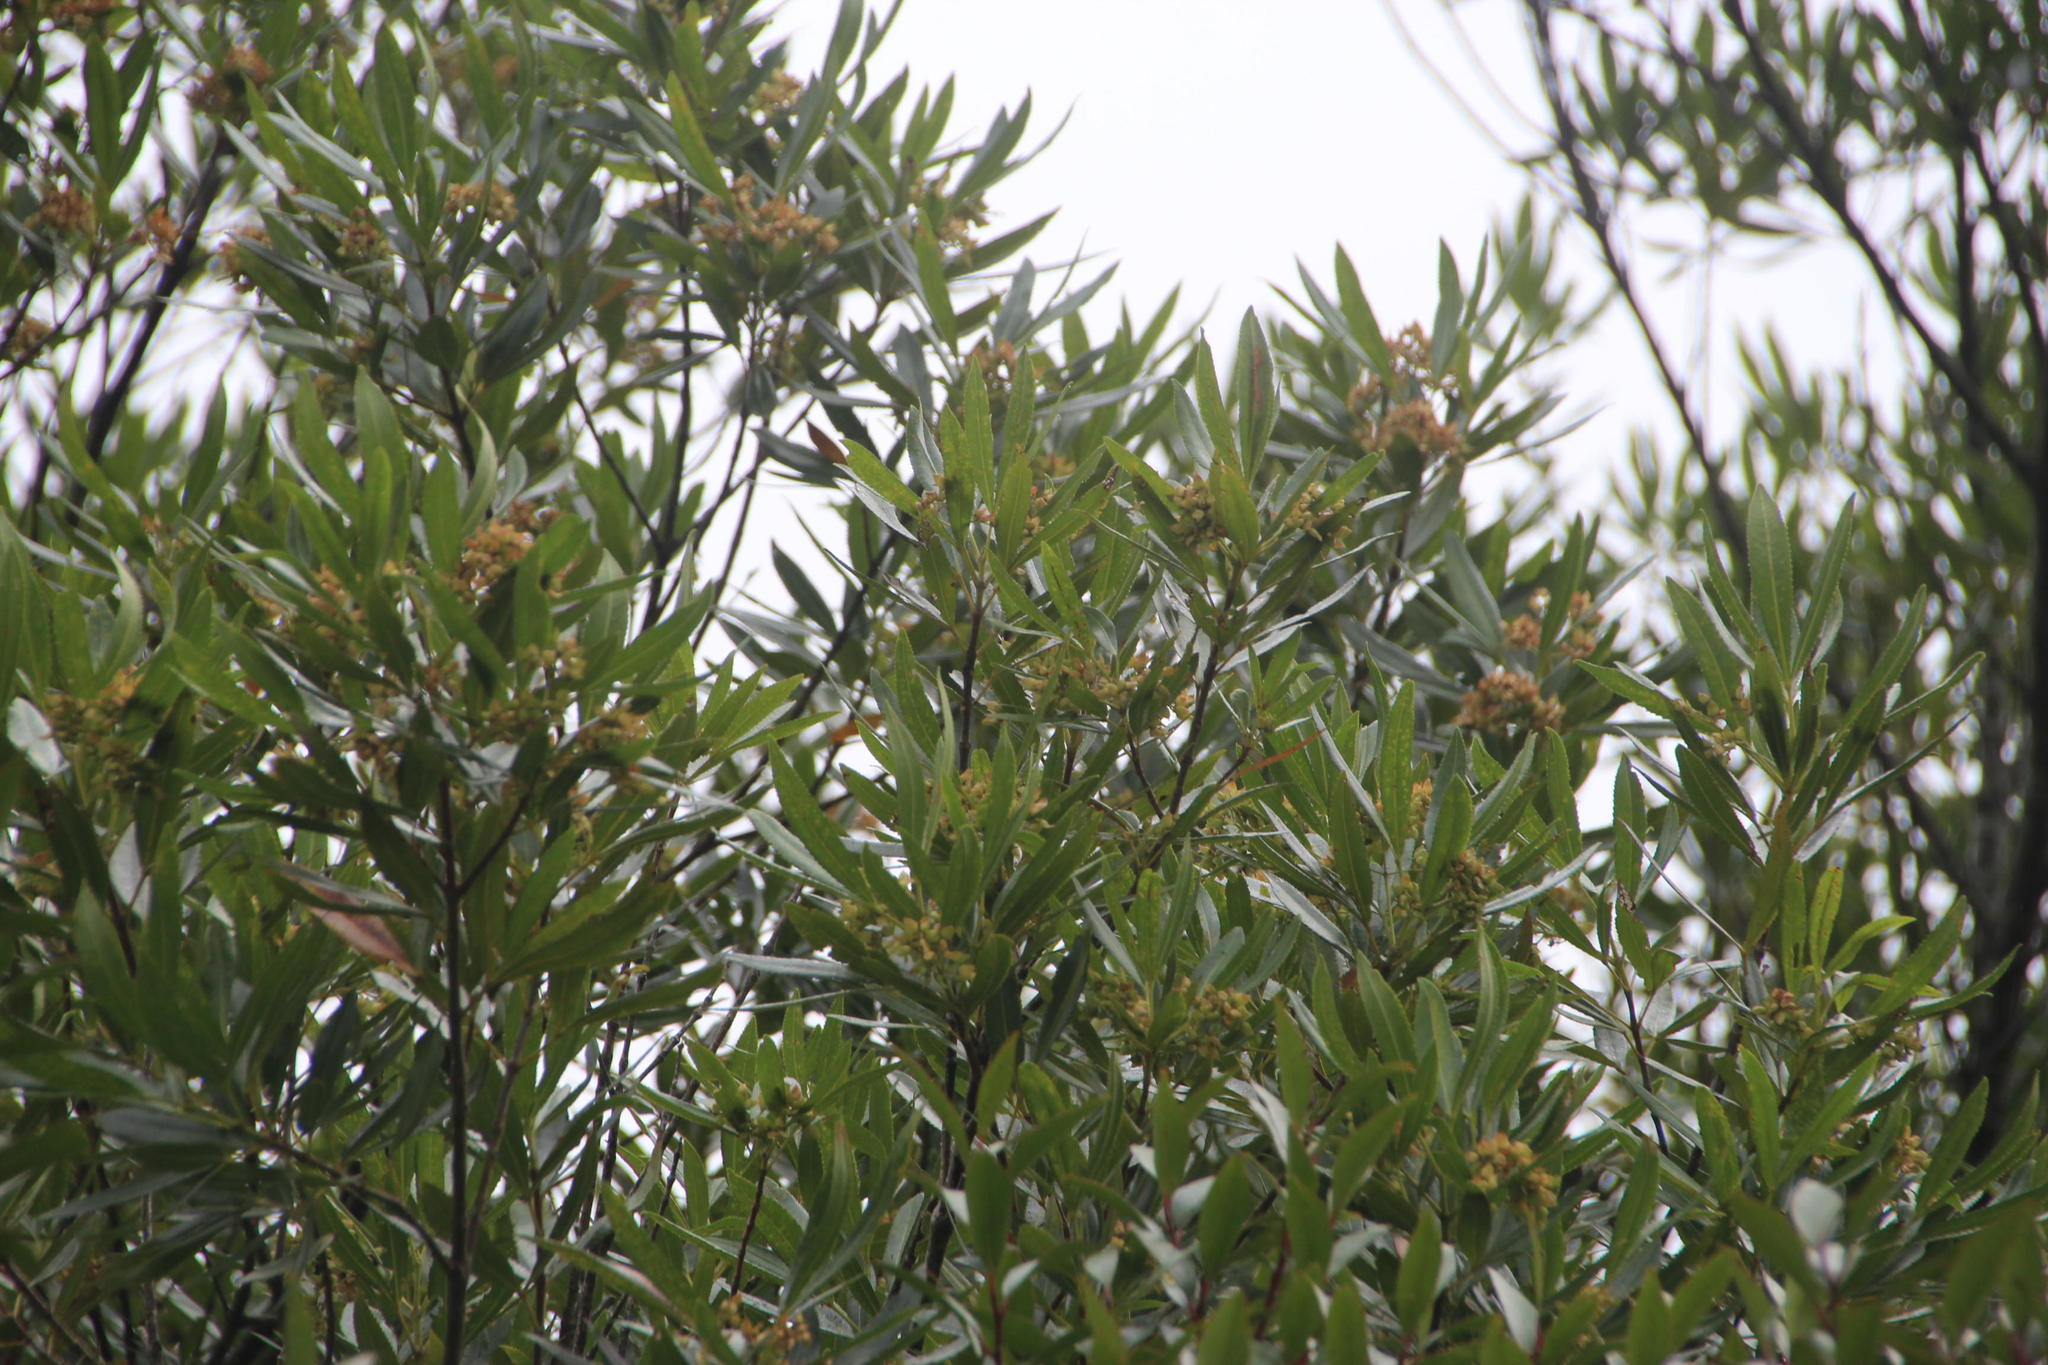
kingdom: Plantae
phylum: Tracheophyta
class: Magnoliopsida
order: Oxalidales
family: Cunoniaceae
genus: Platylophus
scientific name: Platylophus trifoliatus
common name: White alder
